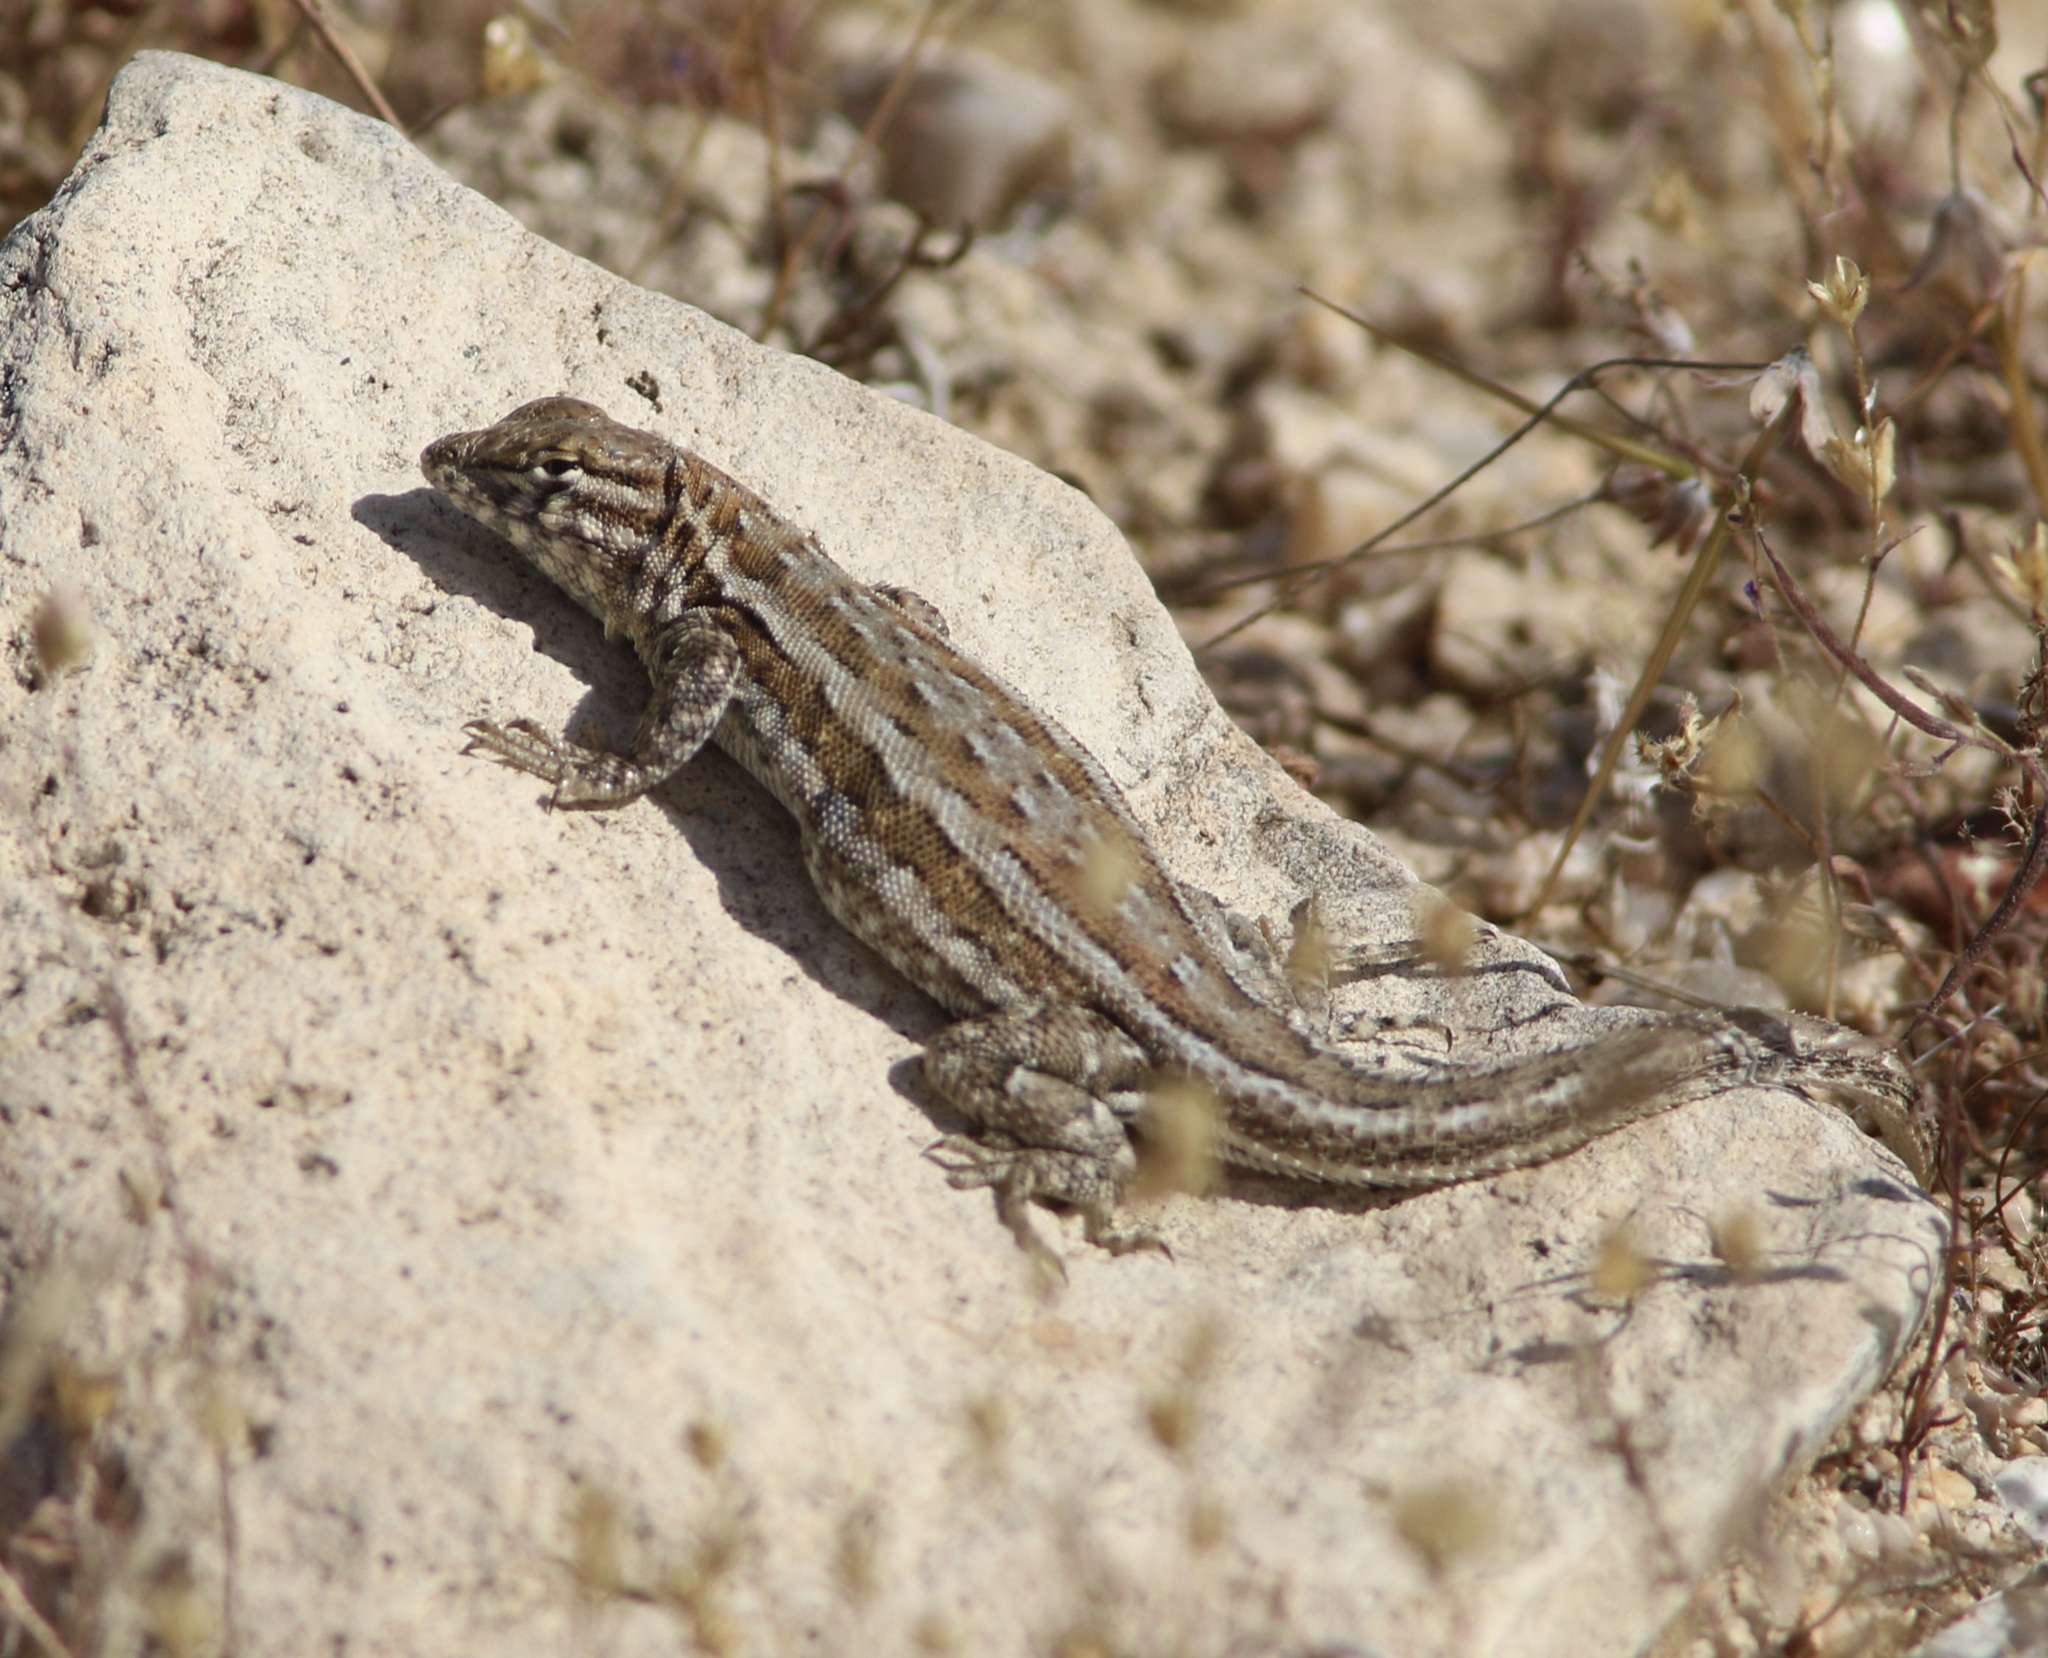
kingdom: Animalia
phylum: Chordata
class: Squamata
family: Phrynosomatidae
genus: Uta
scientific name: Uta stansburiana
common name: Side-blotched lizard
